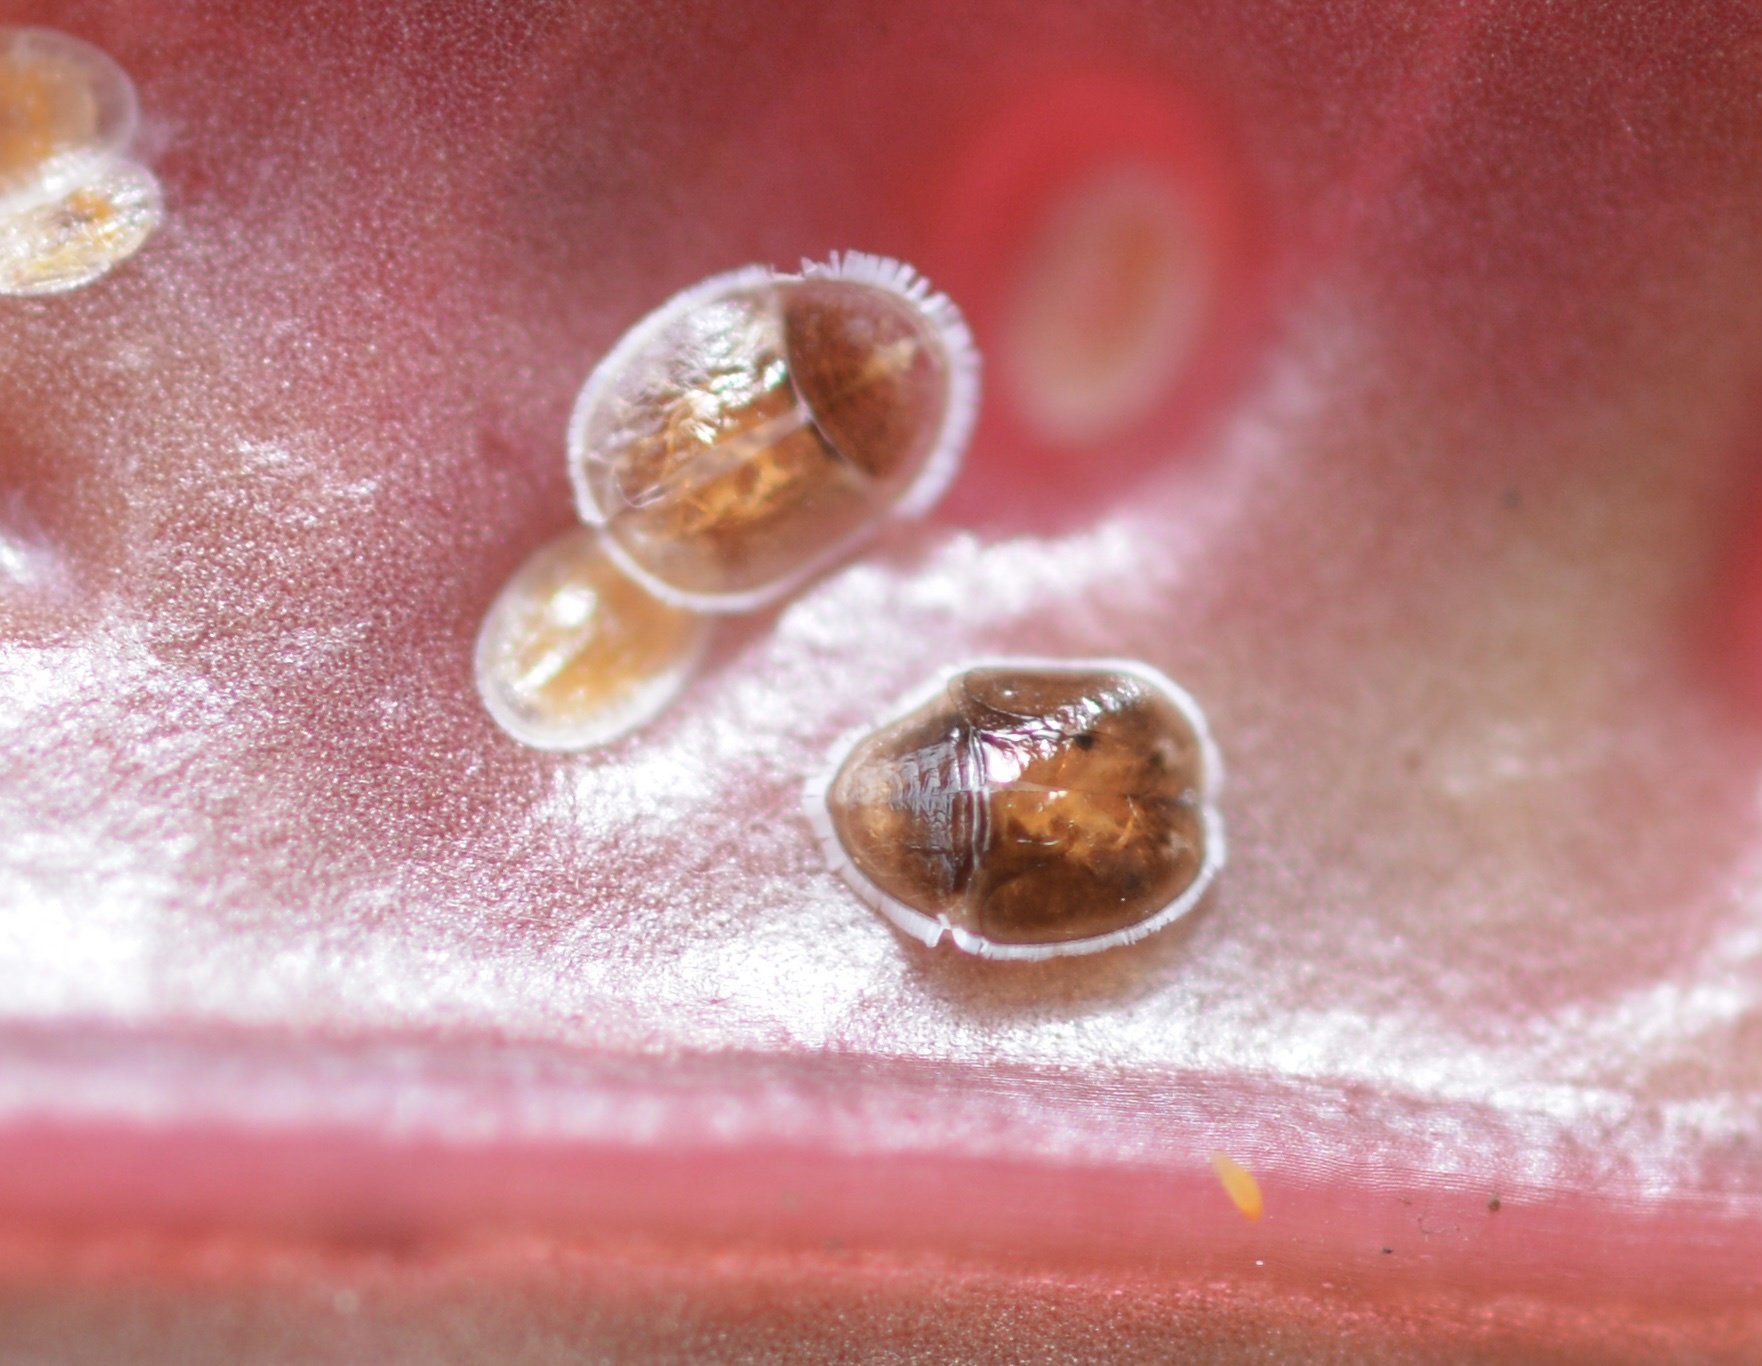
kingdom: Animalia
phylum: Arthropoda
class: Insecta
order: Hemiptera
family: Triozidae
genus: Trioza
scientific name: Trioza adventicia
